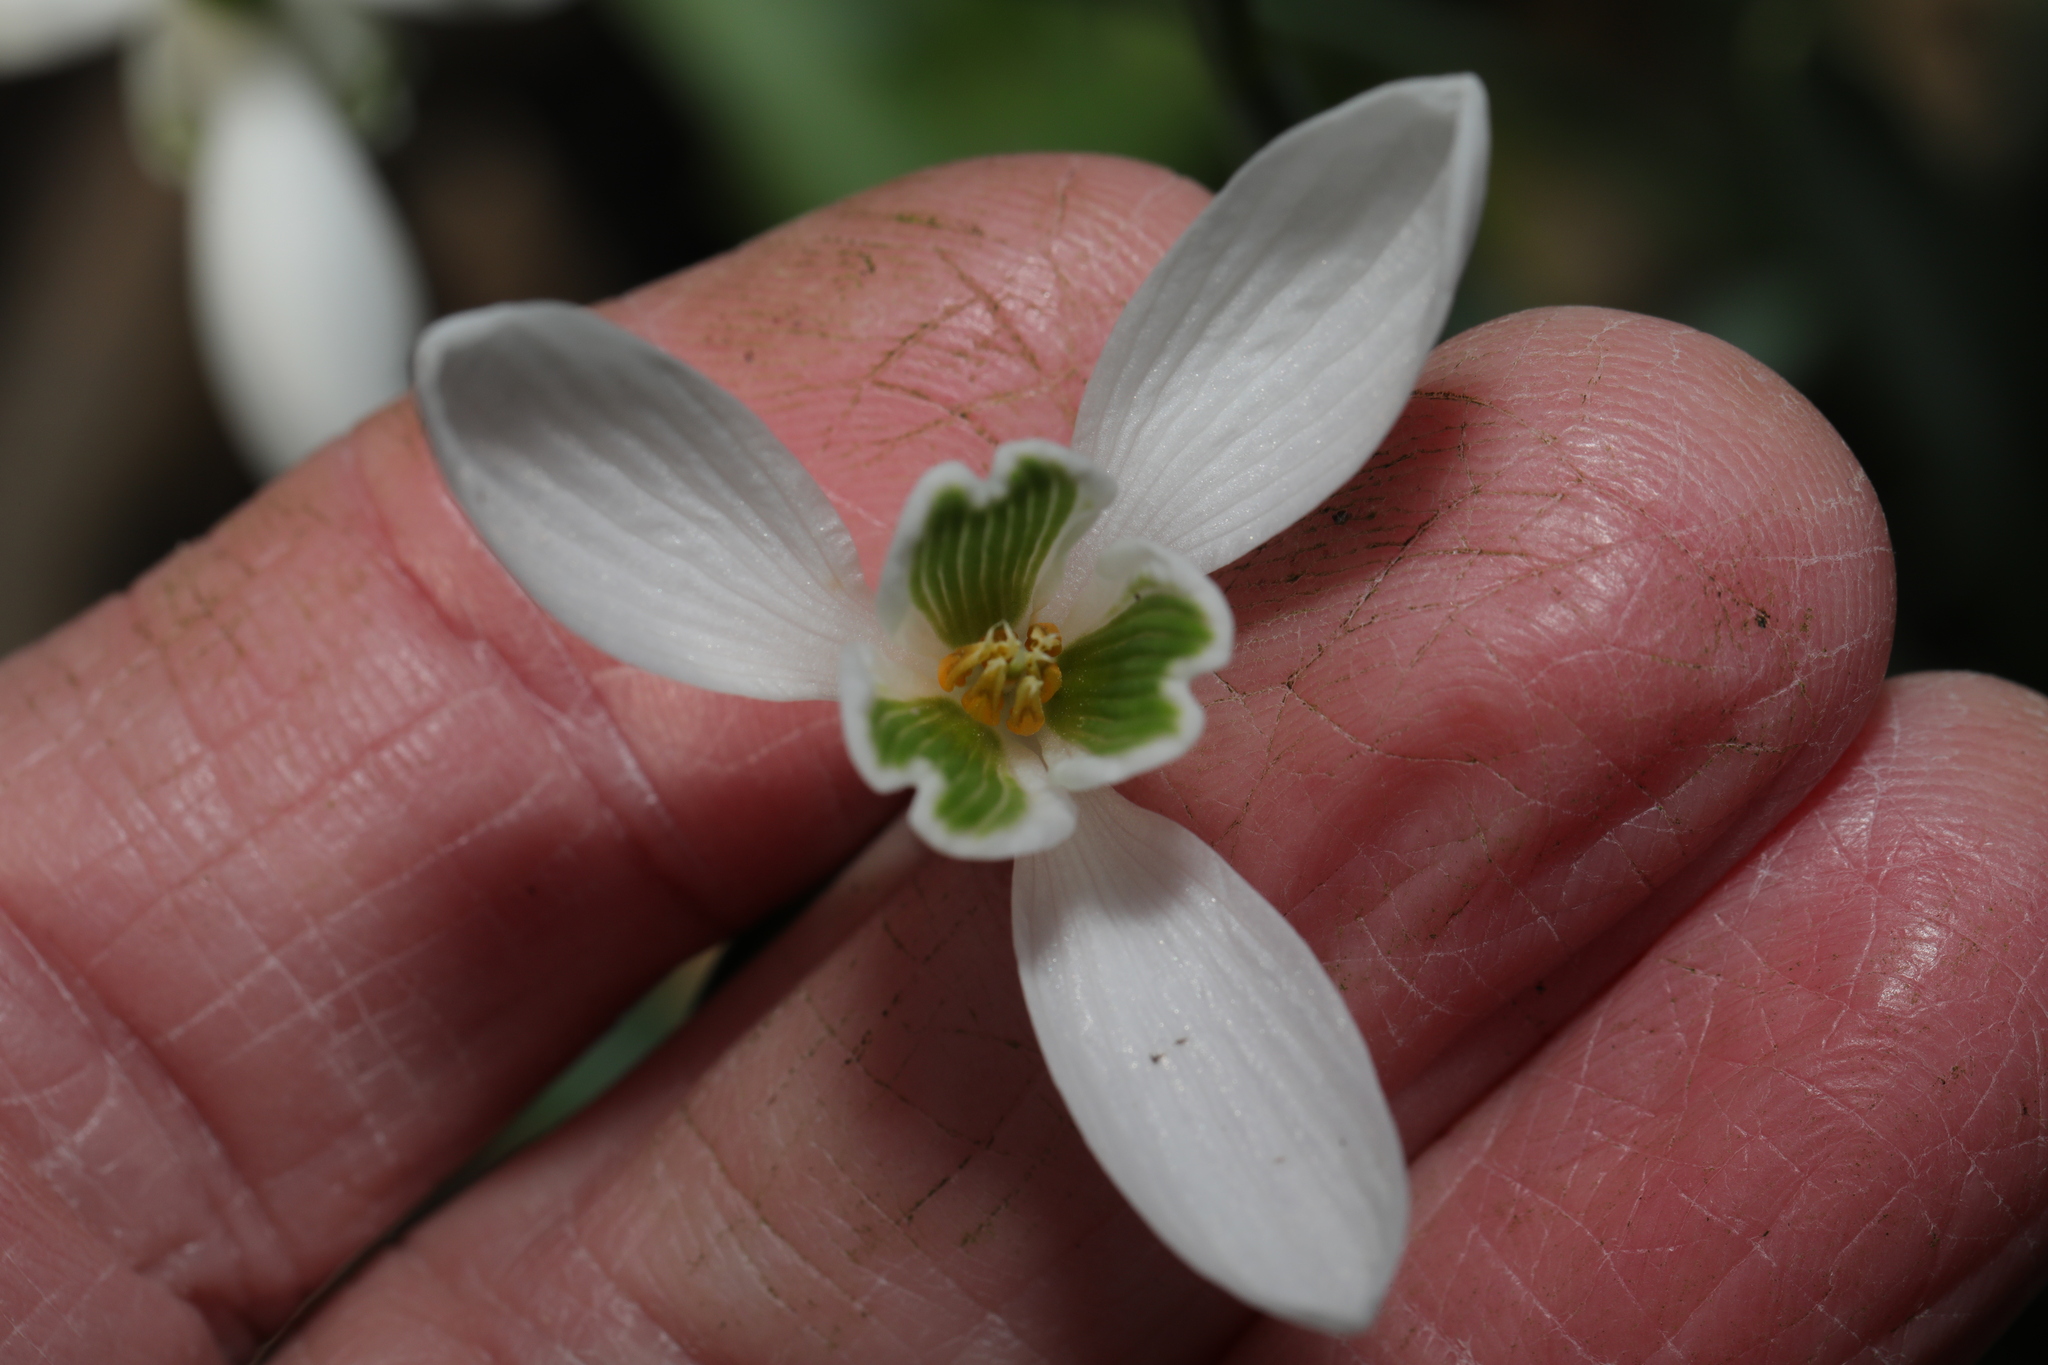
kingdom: Plantae
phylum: Tracheophyta
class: Liliopsida
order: Asparagales
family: Amaryllidaceae
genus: Galanthus
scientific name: Galanthus nivalis
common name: Snowdrop
